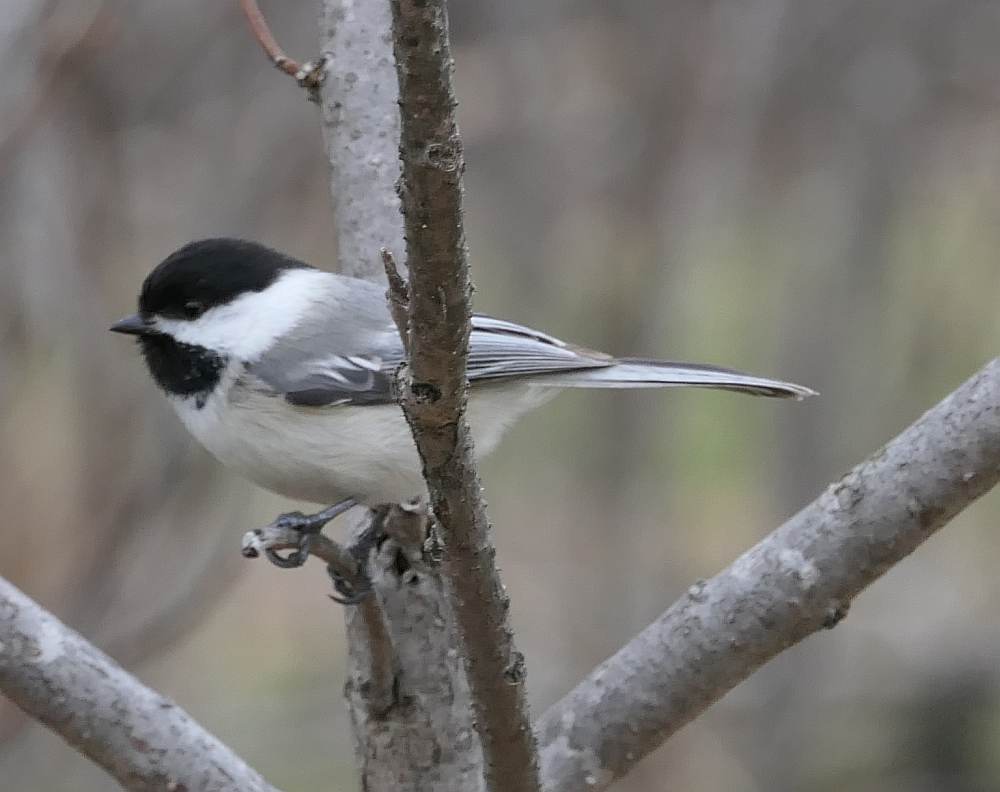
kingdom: Animalia
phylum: Chordata
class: Aves
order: Passeriformes
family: Paridae
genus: Poecile
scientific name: Poecile atricapillus
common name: Black-capped chickadee
